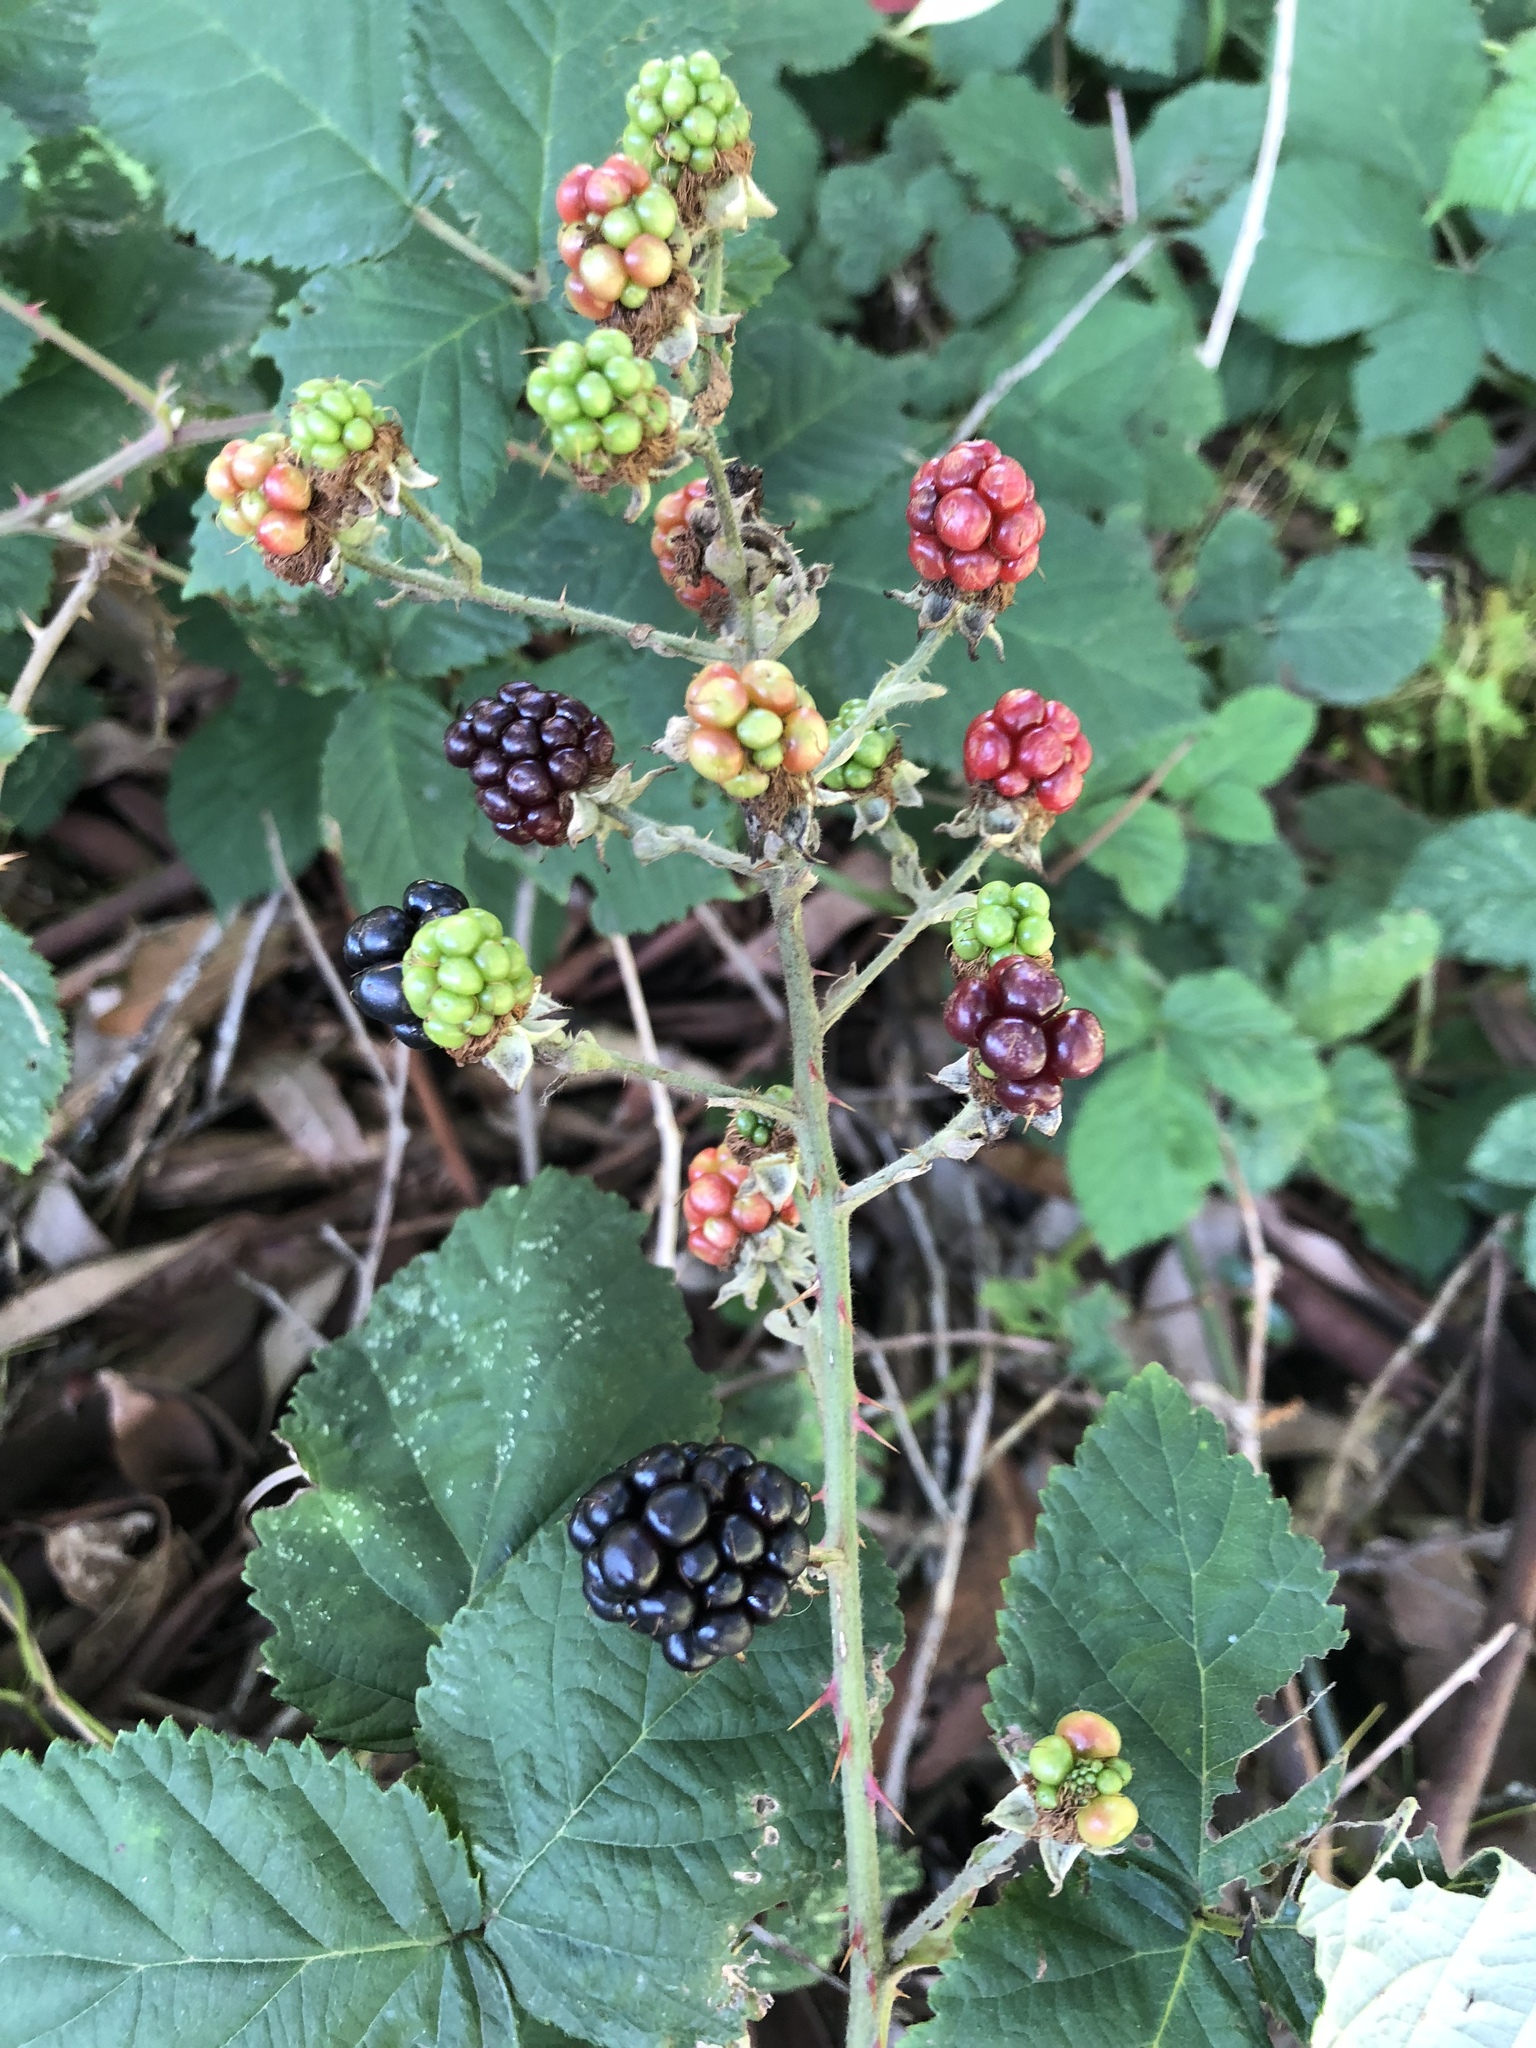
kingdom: Plantae
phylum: Tracheophyta
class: Magnoliopsida
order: Rosales
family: Rosaceae
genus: Rubus
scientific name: Rubus armeniacus
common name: Himalayan blackberry
